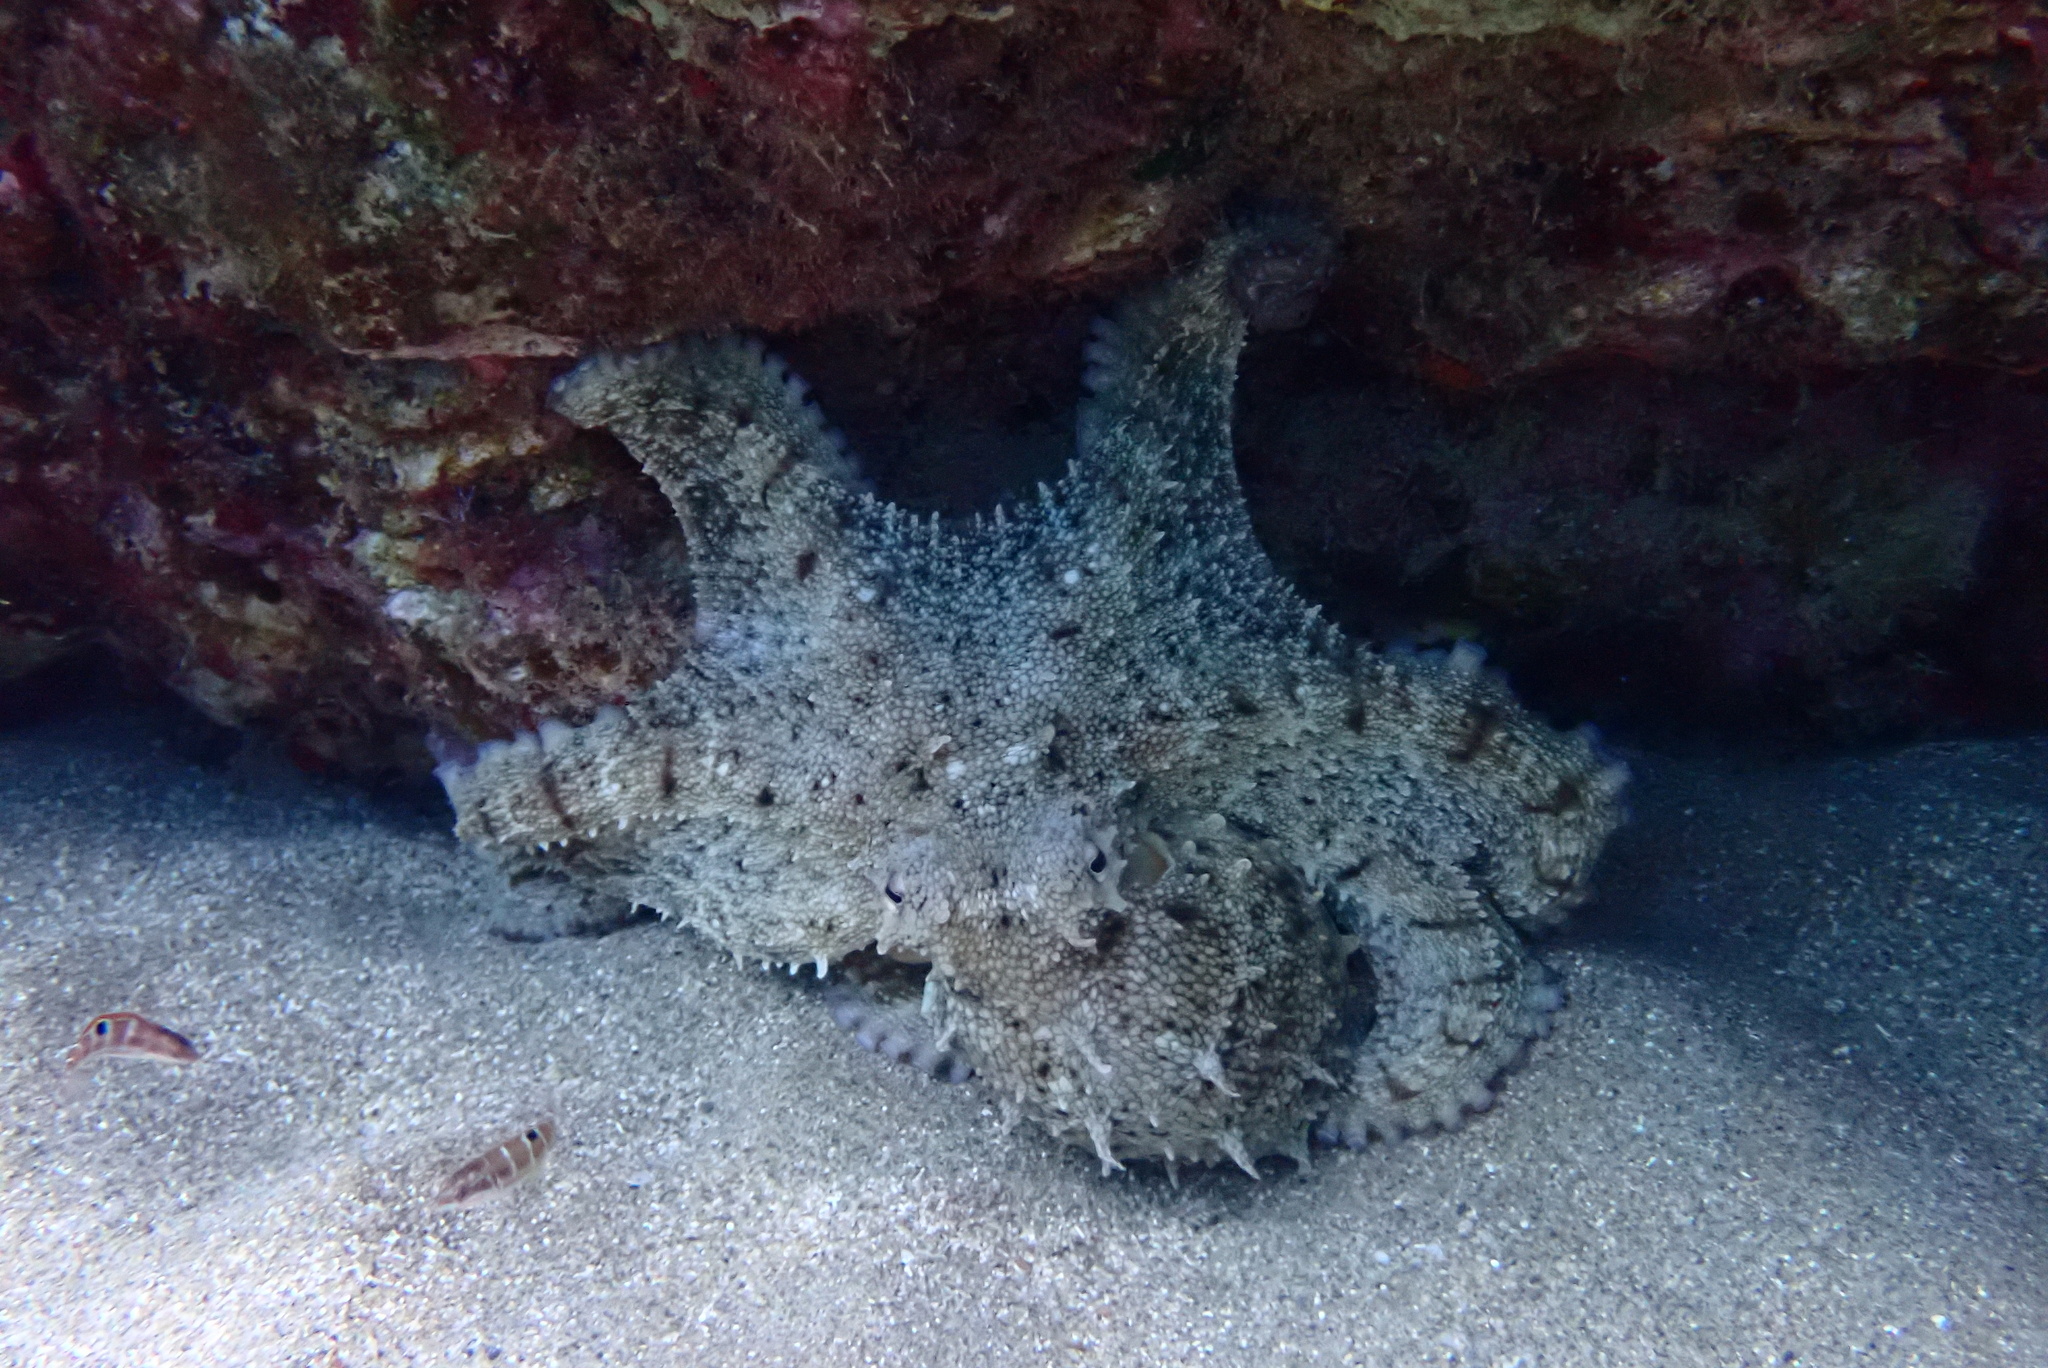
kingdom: Animalia
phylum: Mollusca
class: Cephalopoda
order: Octopoda
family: Octopodidae
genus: Octopus
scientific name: Octopus vulgaris
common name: Common octopus
